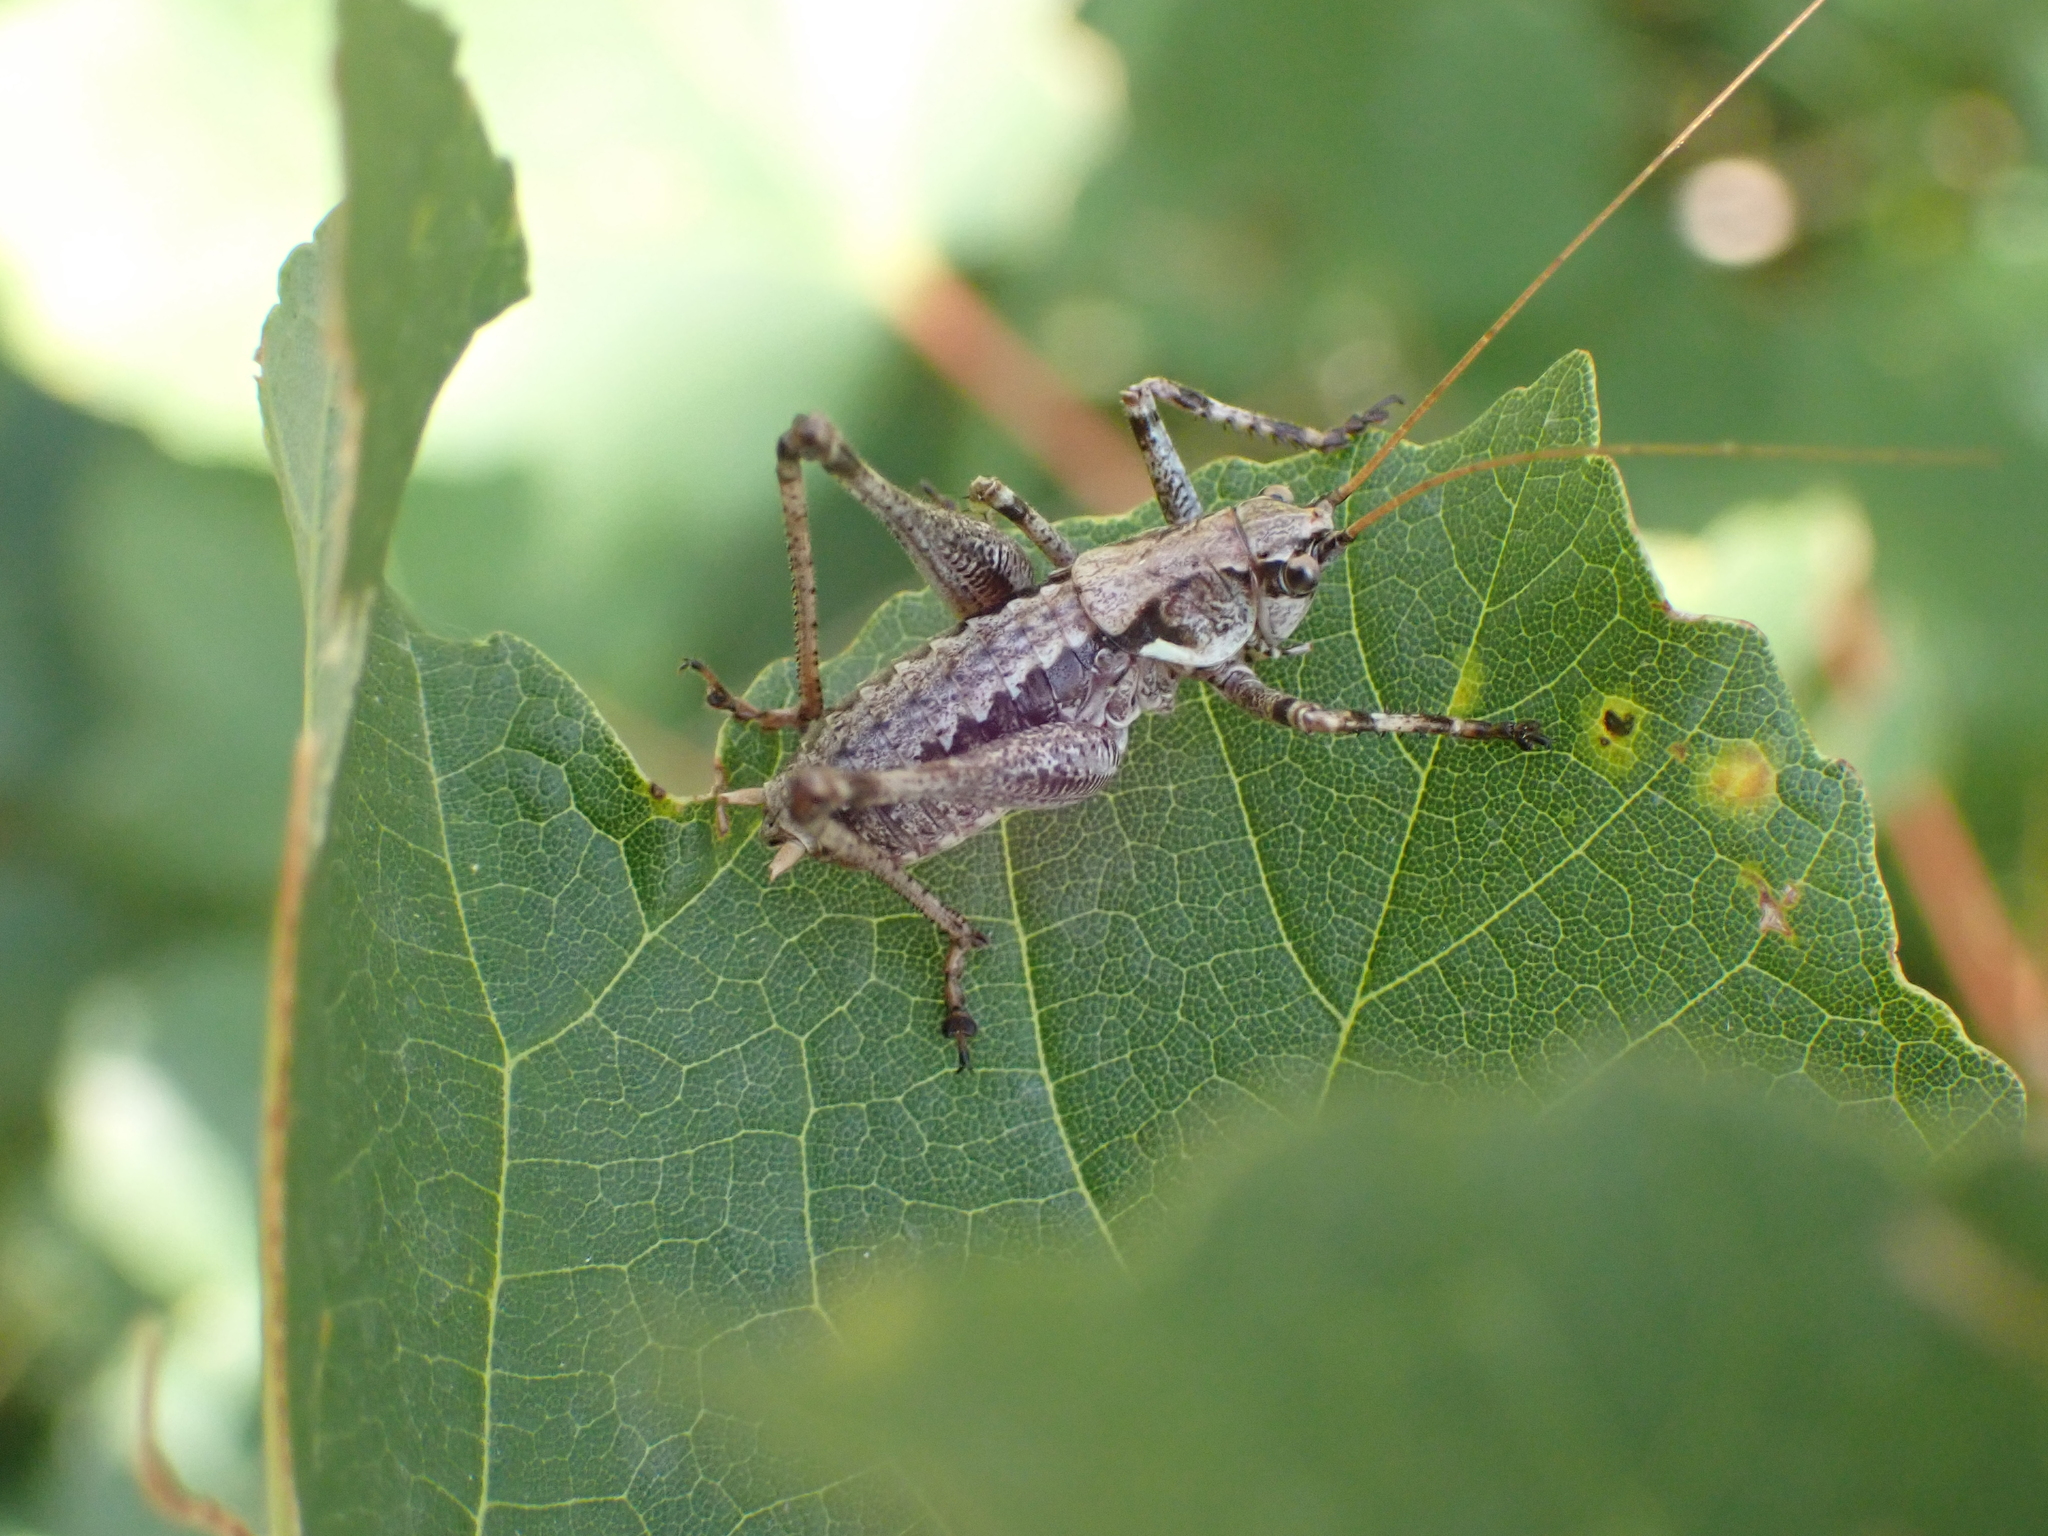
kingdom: Animalia
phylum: Arthropoda
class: Insecta
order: Orthoptera
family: Tettigoniidae
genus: Antaxius
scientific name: Antaxius pedestris
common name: Common mountain bush-cricket
